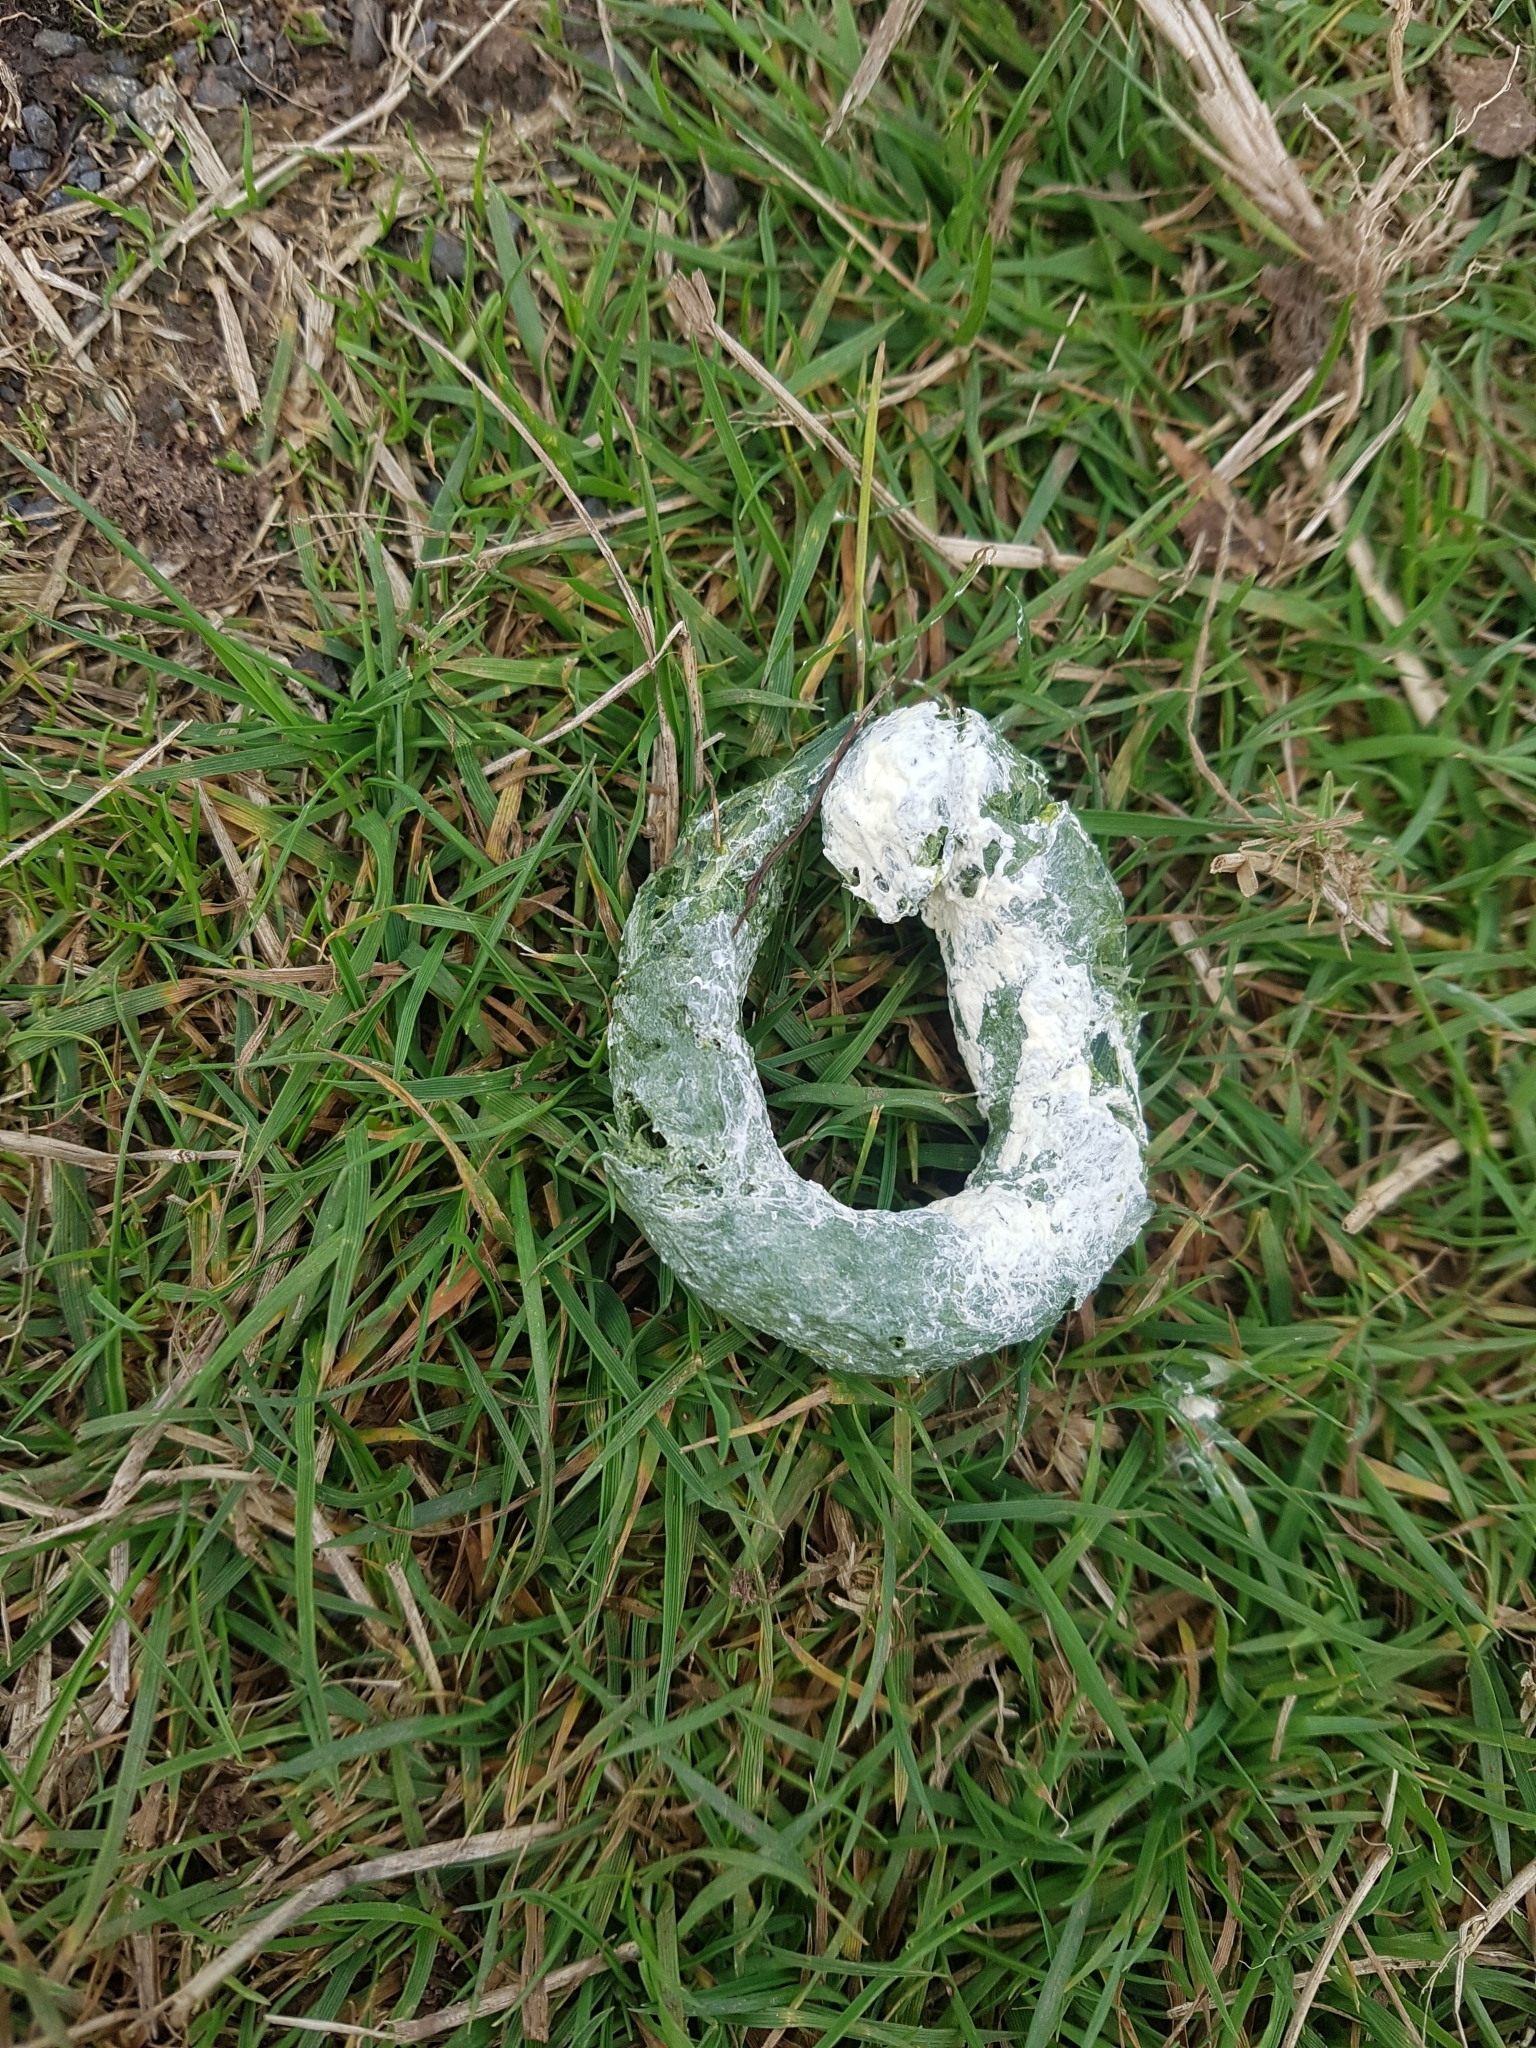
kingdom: Animalia
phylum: Chordata
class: Aves
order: Gruiformes
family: Rallidae
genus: Porphyrio
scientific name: Porphyrio hochstetteri
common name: South island takahe
